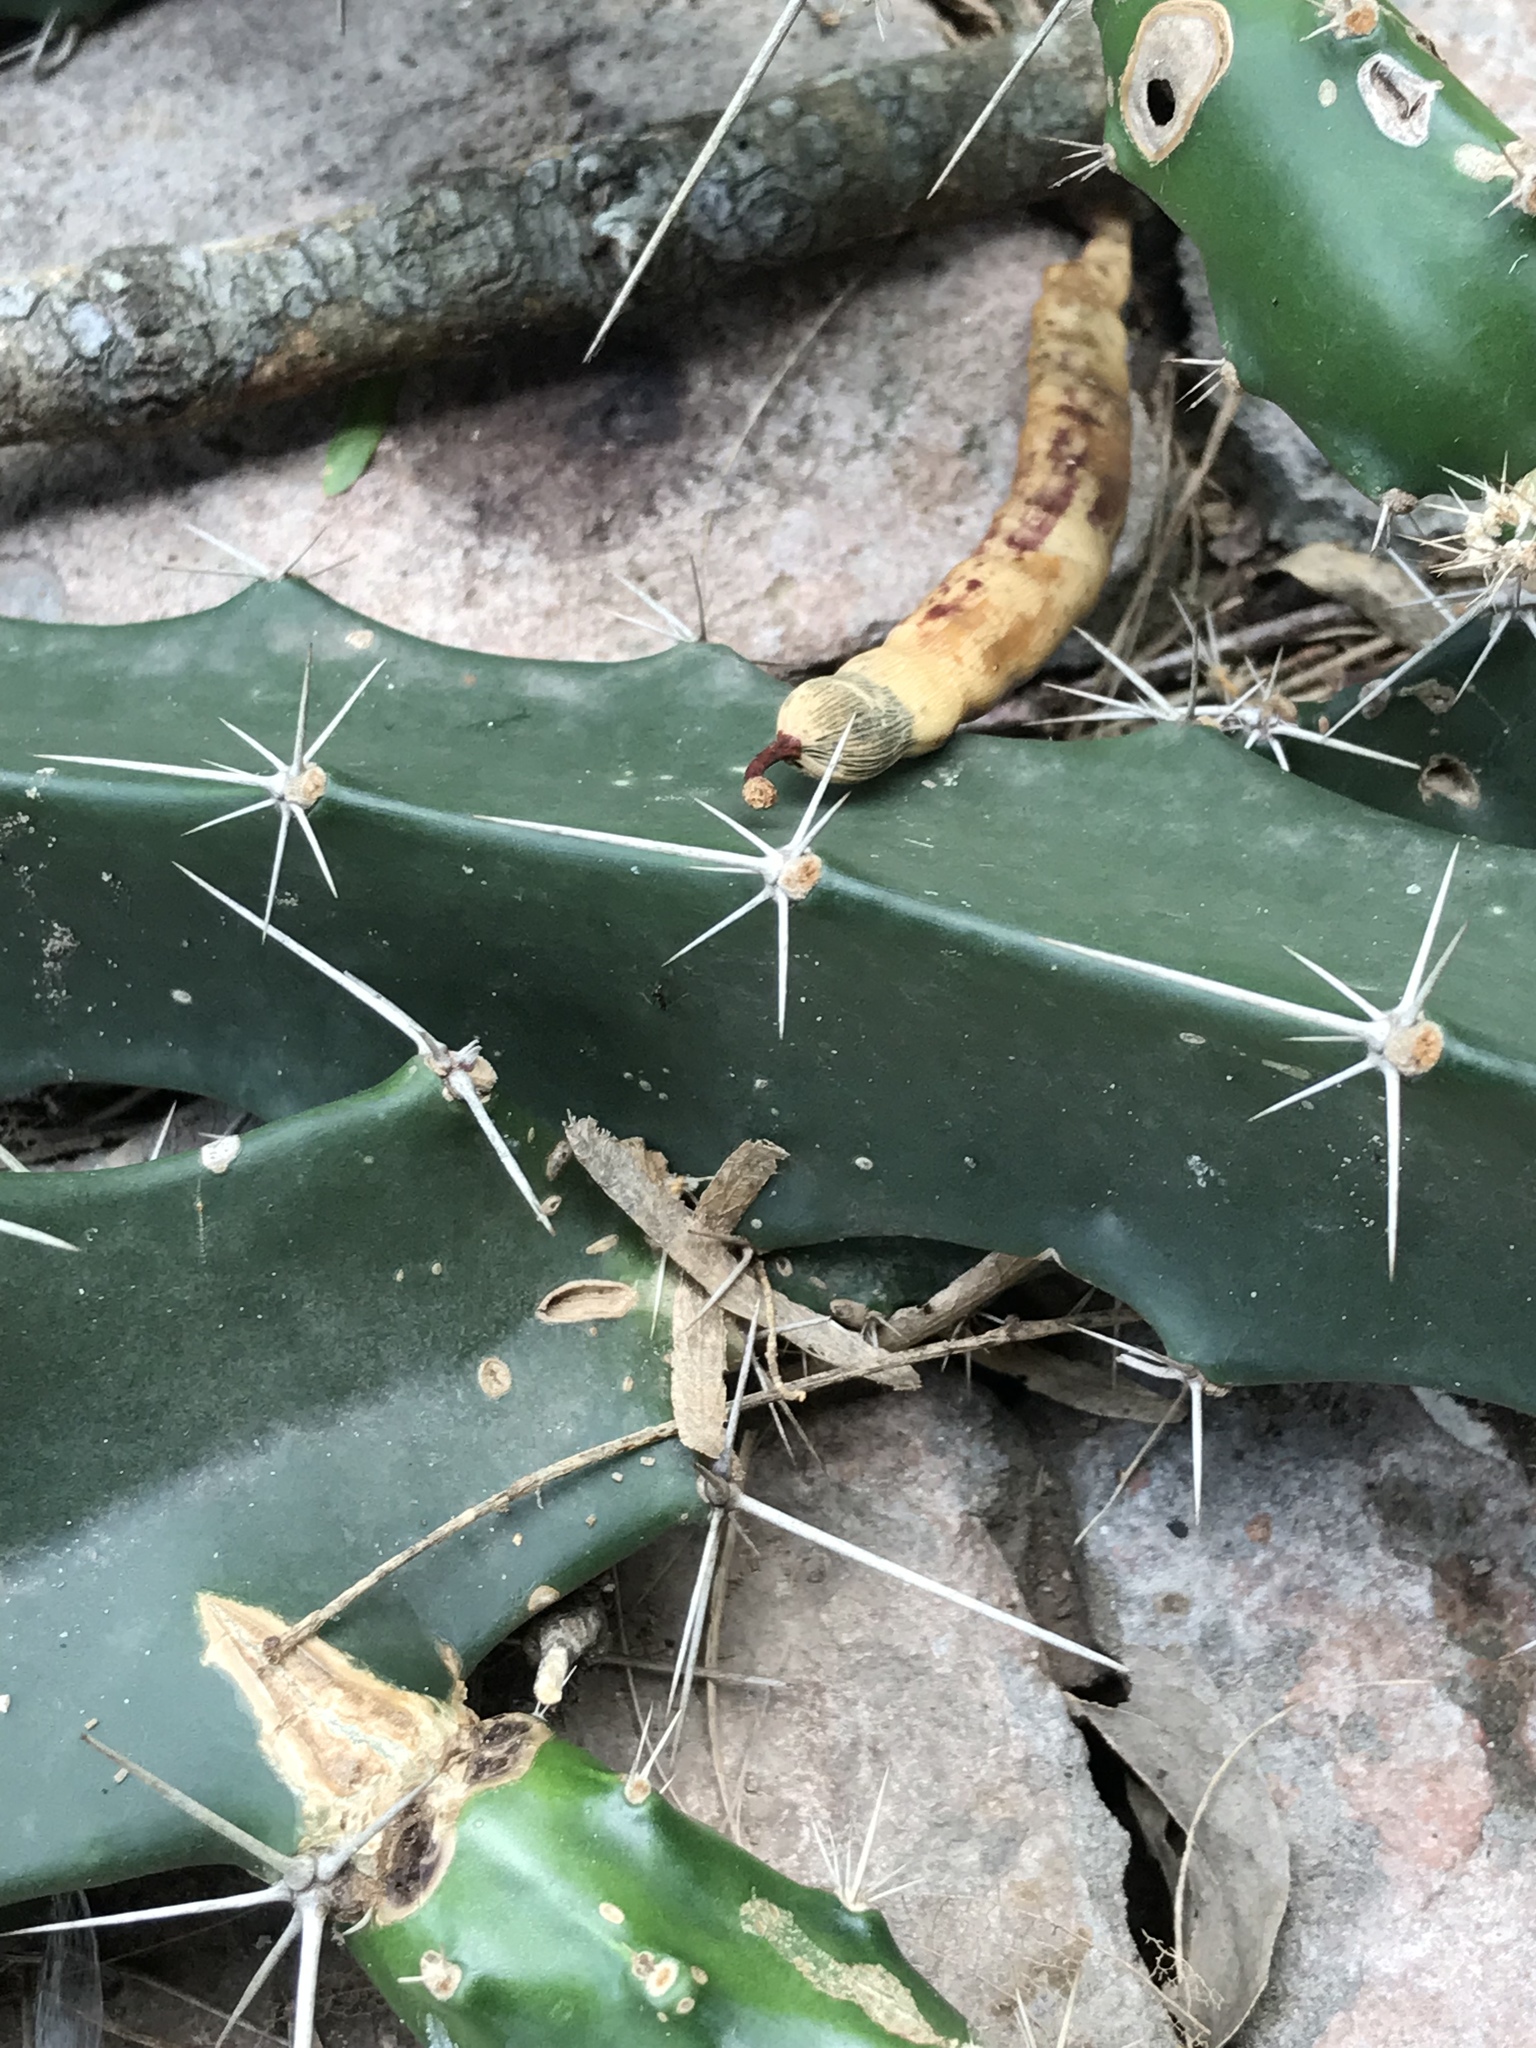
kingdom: Plantae
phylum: Tracheophyta
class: Magnoliopsida
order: Caryophyllales
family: Cactaceae
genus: Acanthocereus
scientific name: Acanthocereus tetragonus
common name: Triangle cactus
